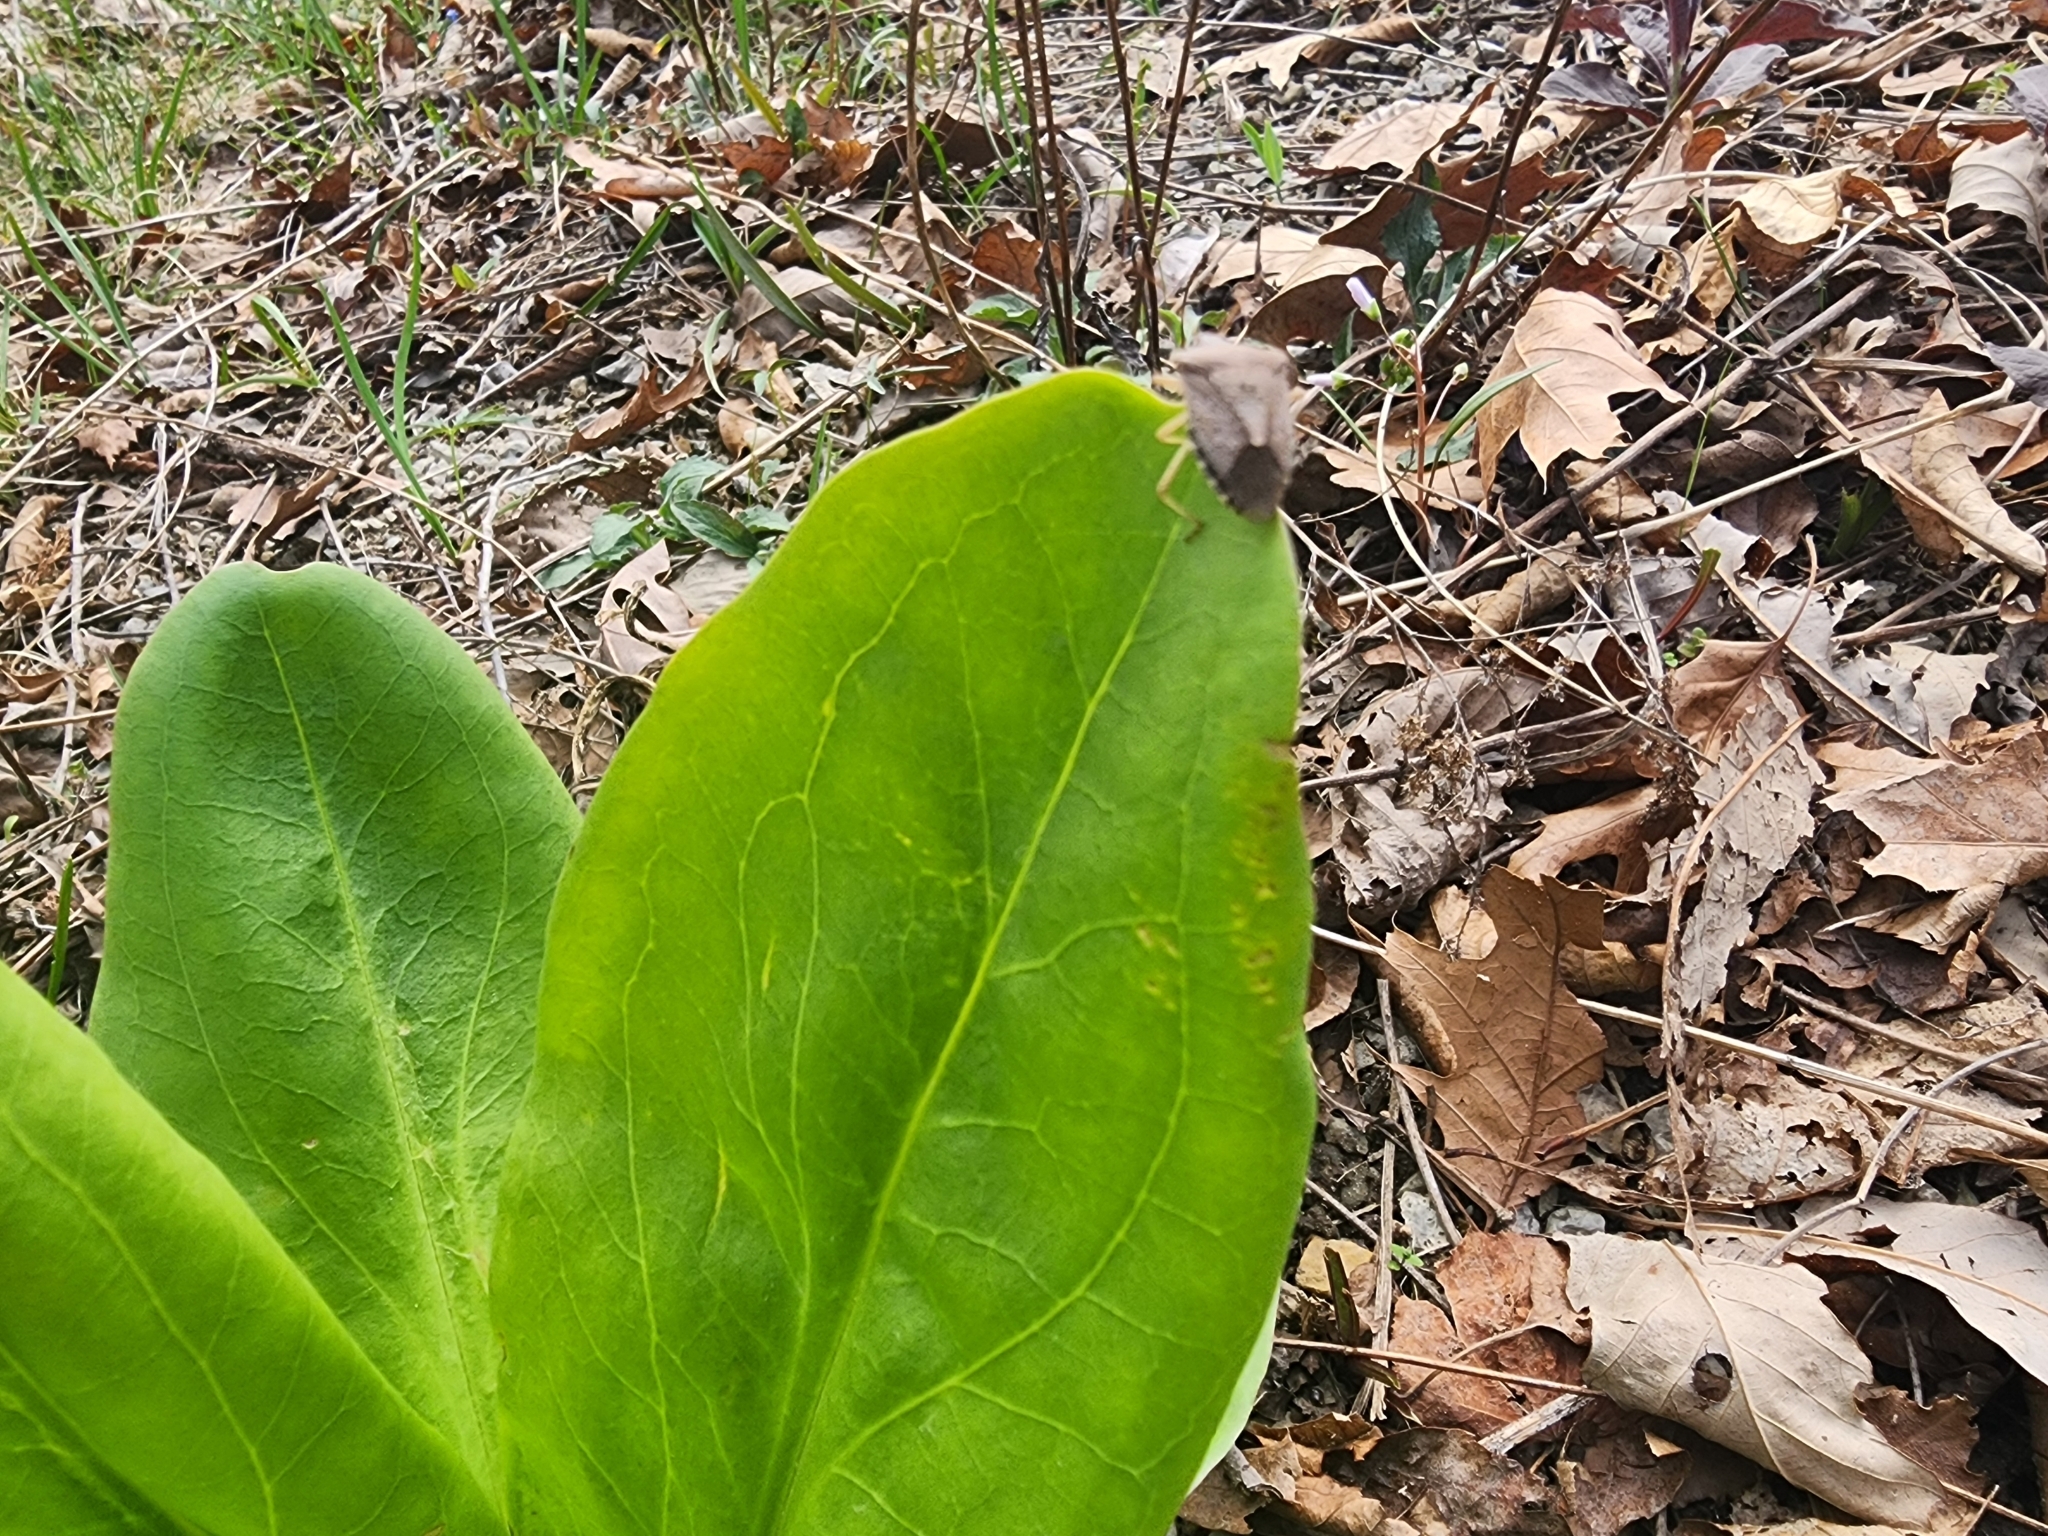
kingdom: Animalia
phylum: Arthropoda
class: Insecta
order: Hemiptera
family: Pentatomidae
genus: Euschistus
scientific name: Euschistus servus
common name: Brown stink bug
